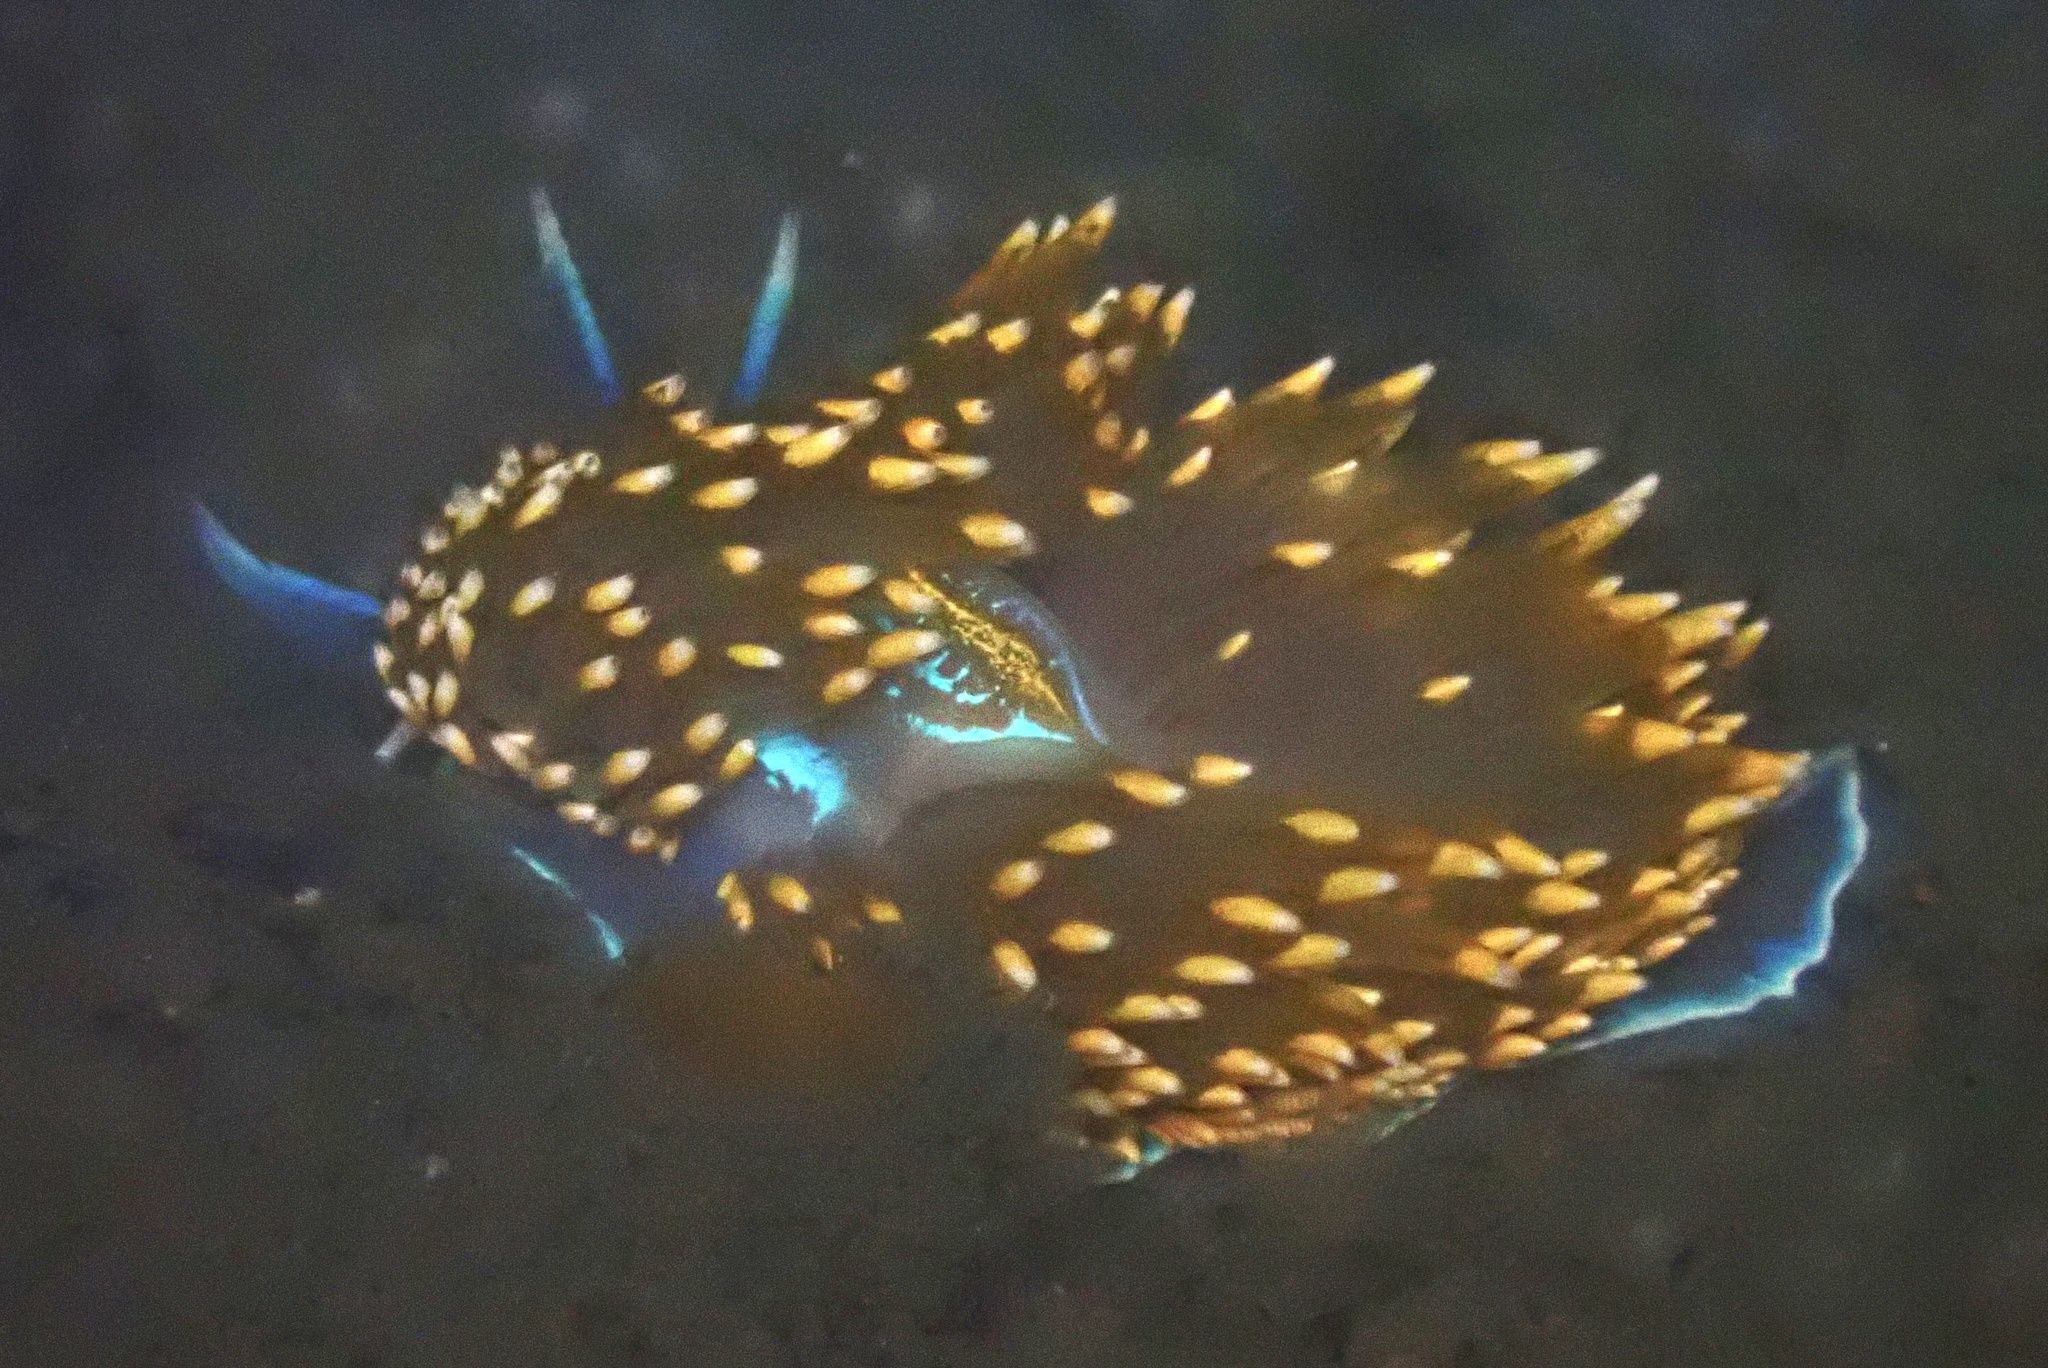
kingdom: Animalia
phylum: Mollusca
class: Gastropoda
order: Nudibranchia
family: Myrrhinidae
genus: Hermissenda
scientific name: Hermissenda opalescens
